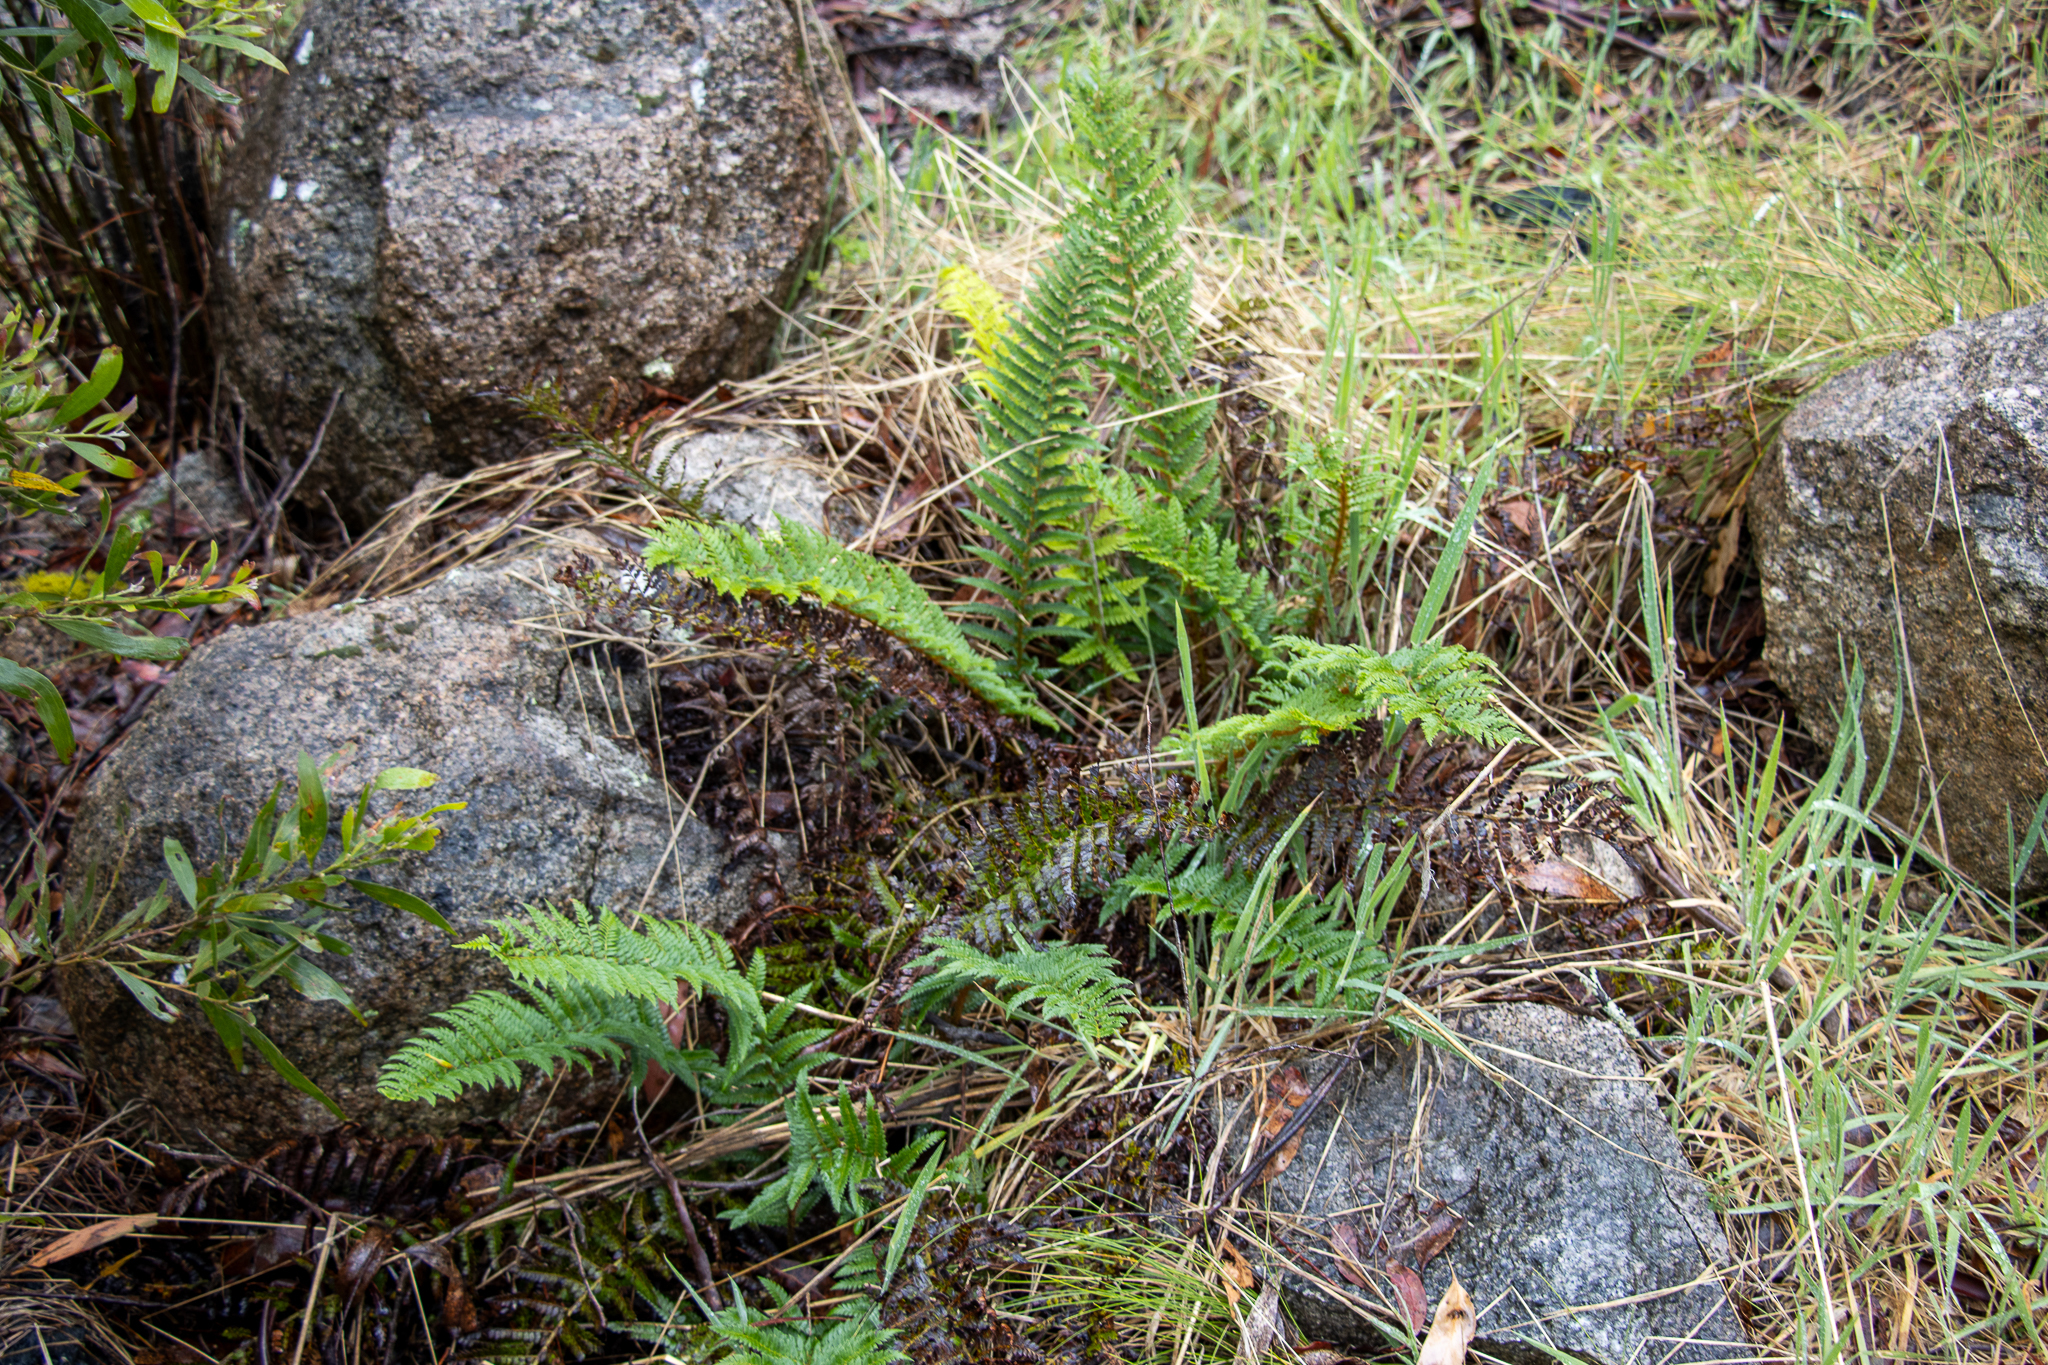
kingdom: Plantae
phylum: Tracheophyta
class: Polypodiopsida
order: Polypodiales
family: Dryopteridaceae
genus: Polystichum
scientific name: Polystichum proliferum
